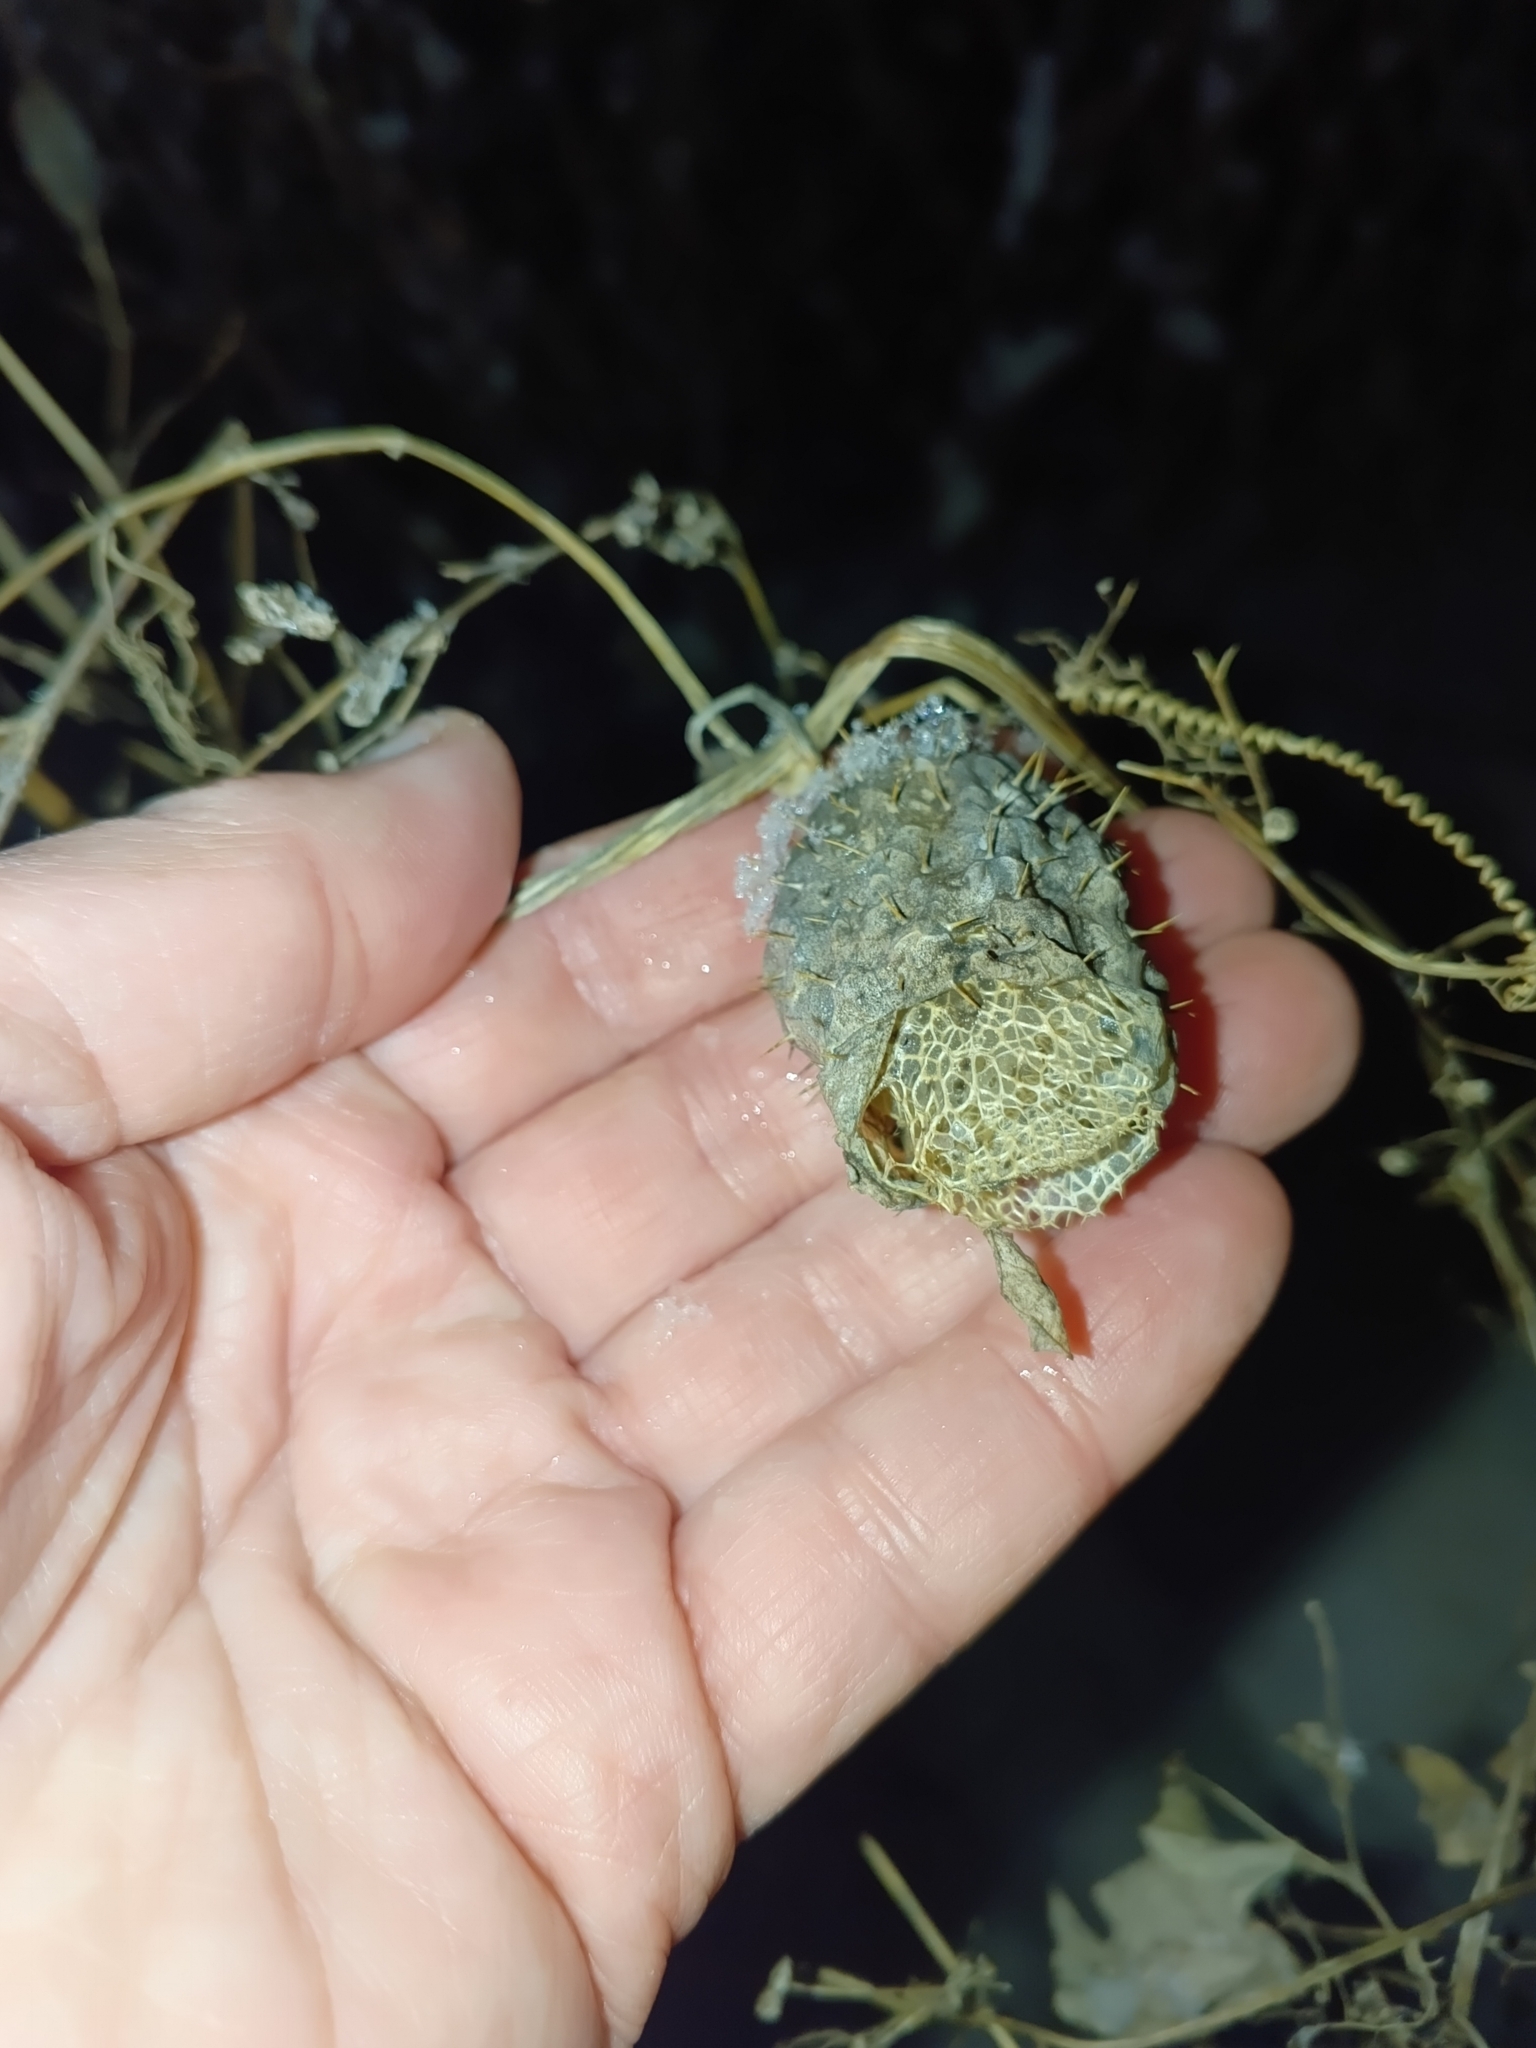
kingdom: Plantae
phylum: Tracheophyta
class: Magnoliopsida
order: Cucurbitales
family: Cucurbitaceae
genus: Echinocystis
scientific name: Echinocystis lobata
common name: Wild cucumber
